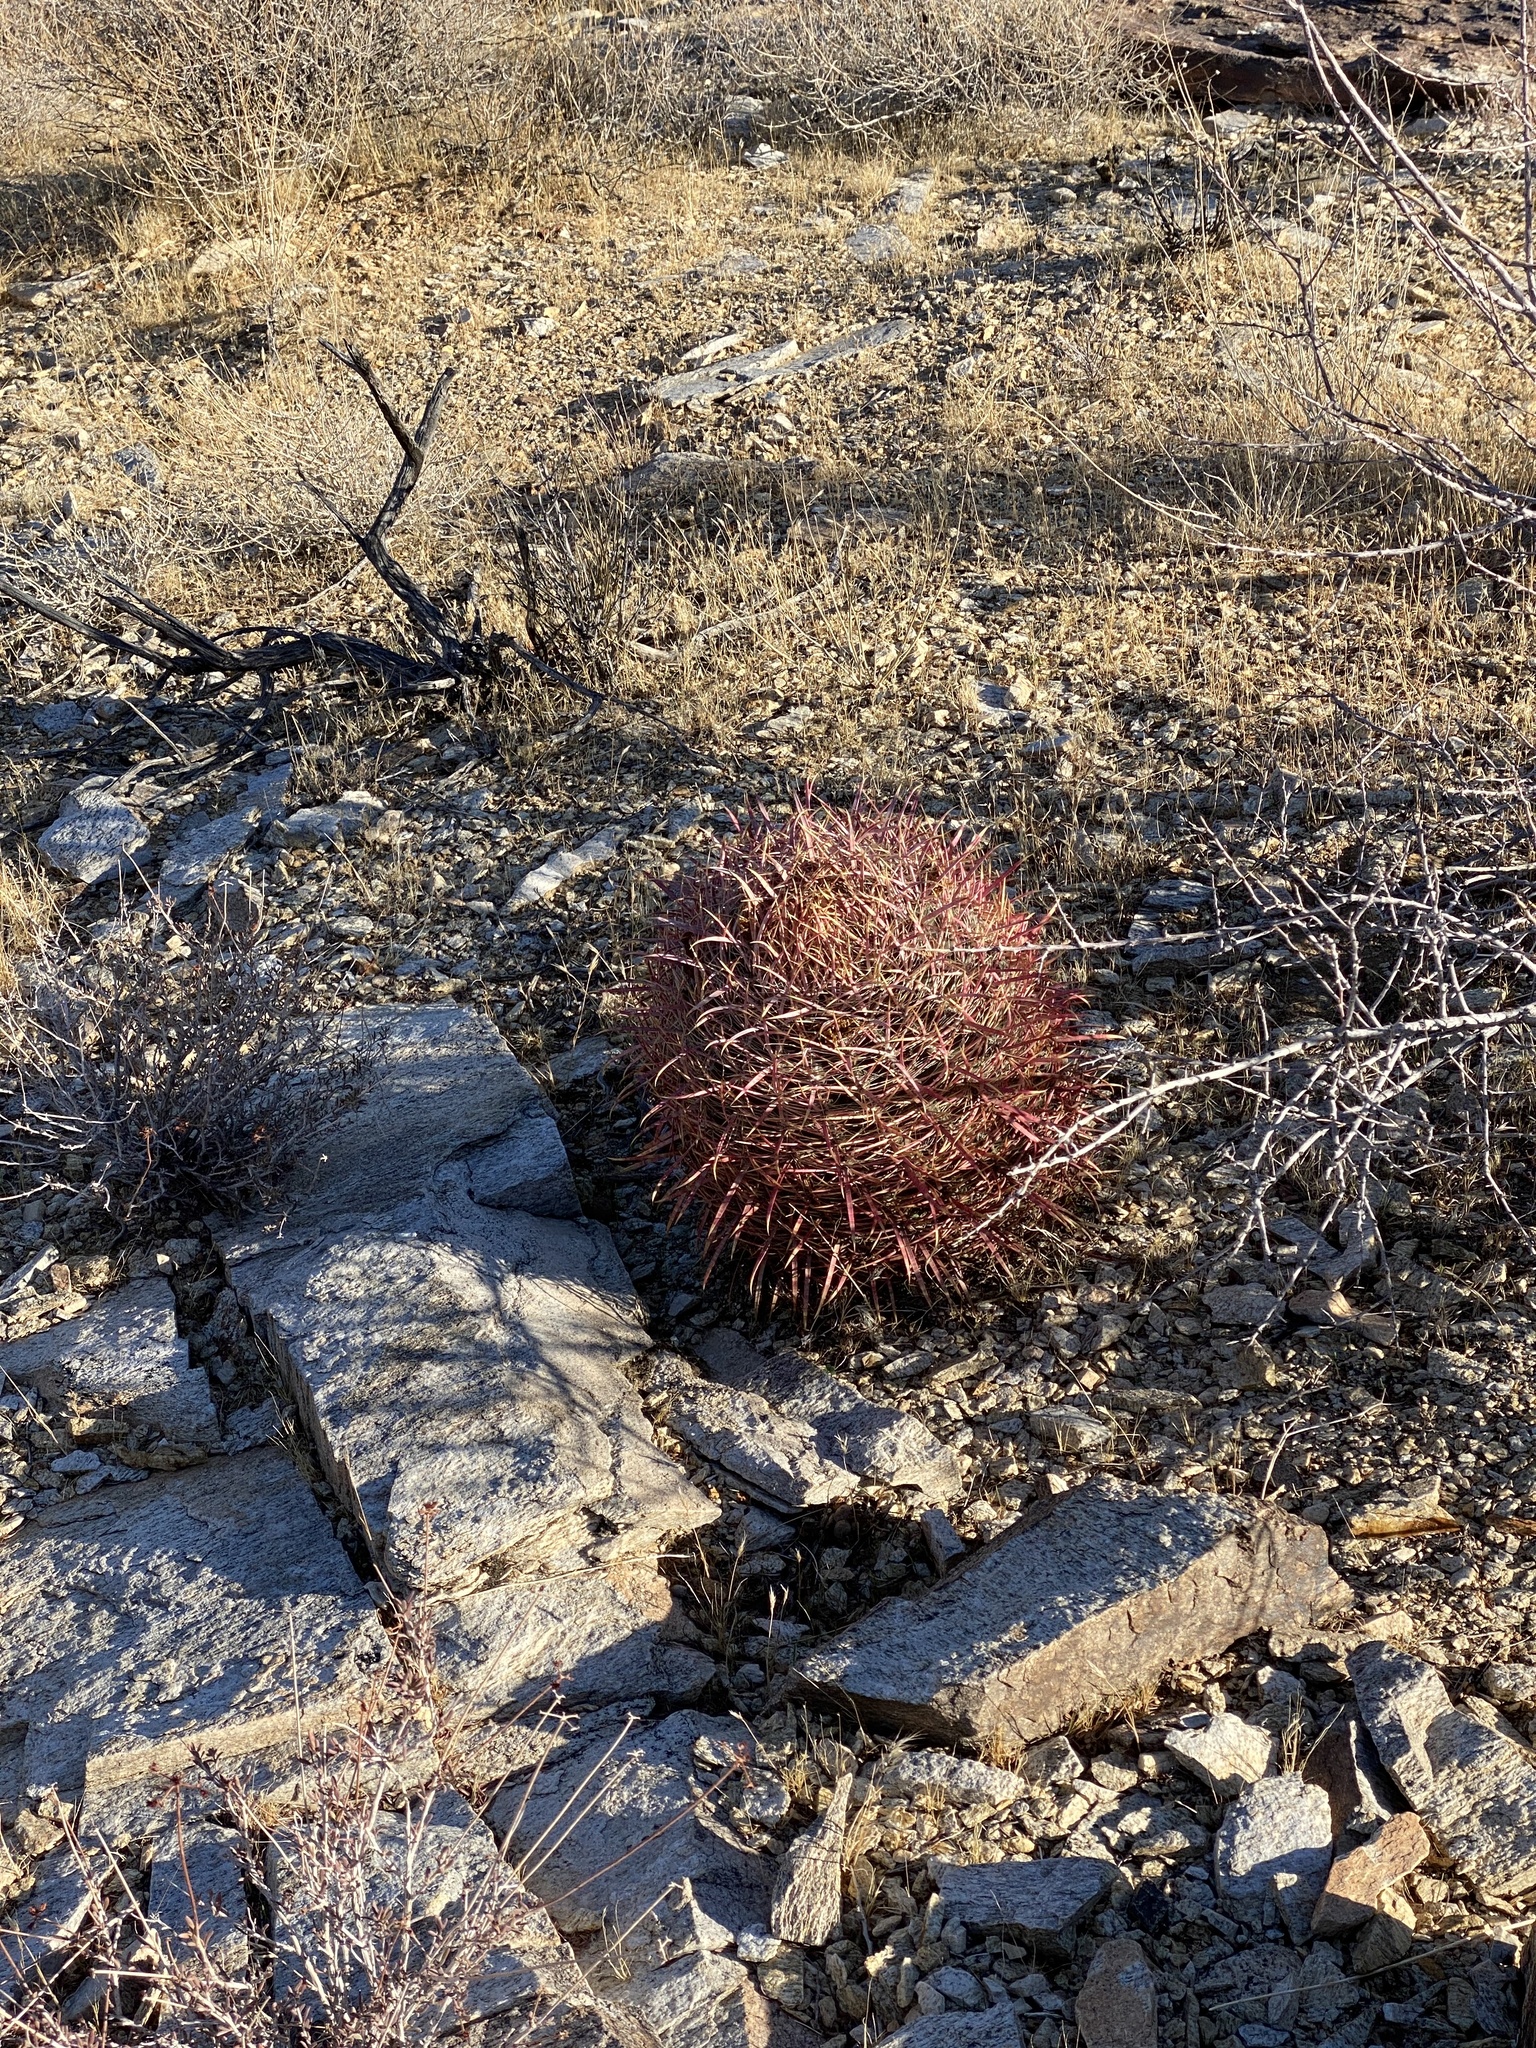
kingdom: Plantae
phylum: Tracheophyta
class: Magnoliopsida
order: Caryophyllales
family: Cactaceae
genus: Ferocactus
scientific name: Ferocactus cylindraceus
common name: California barrel cactus
